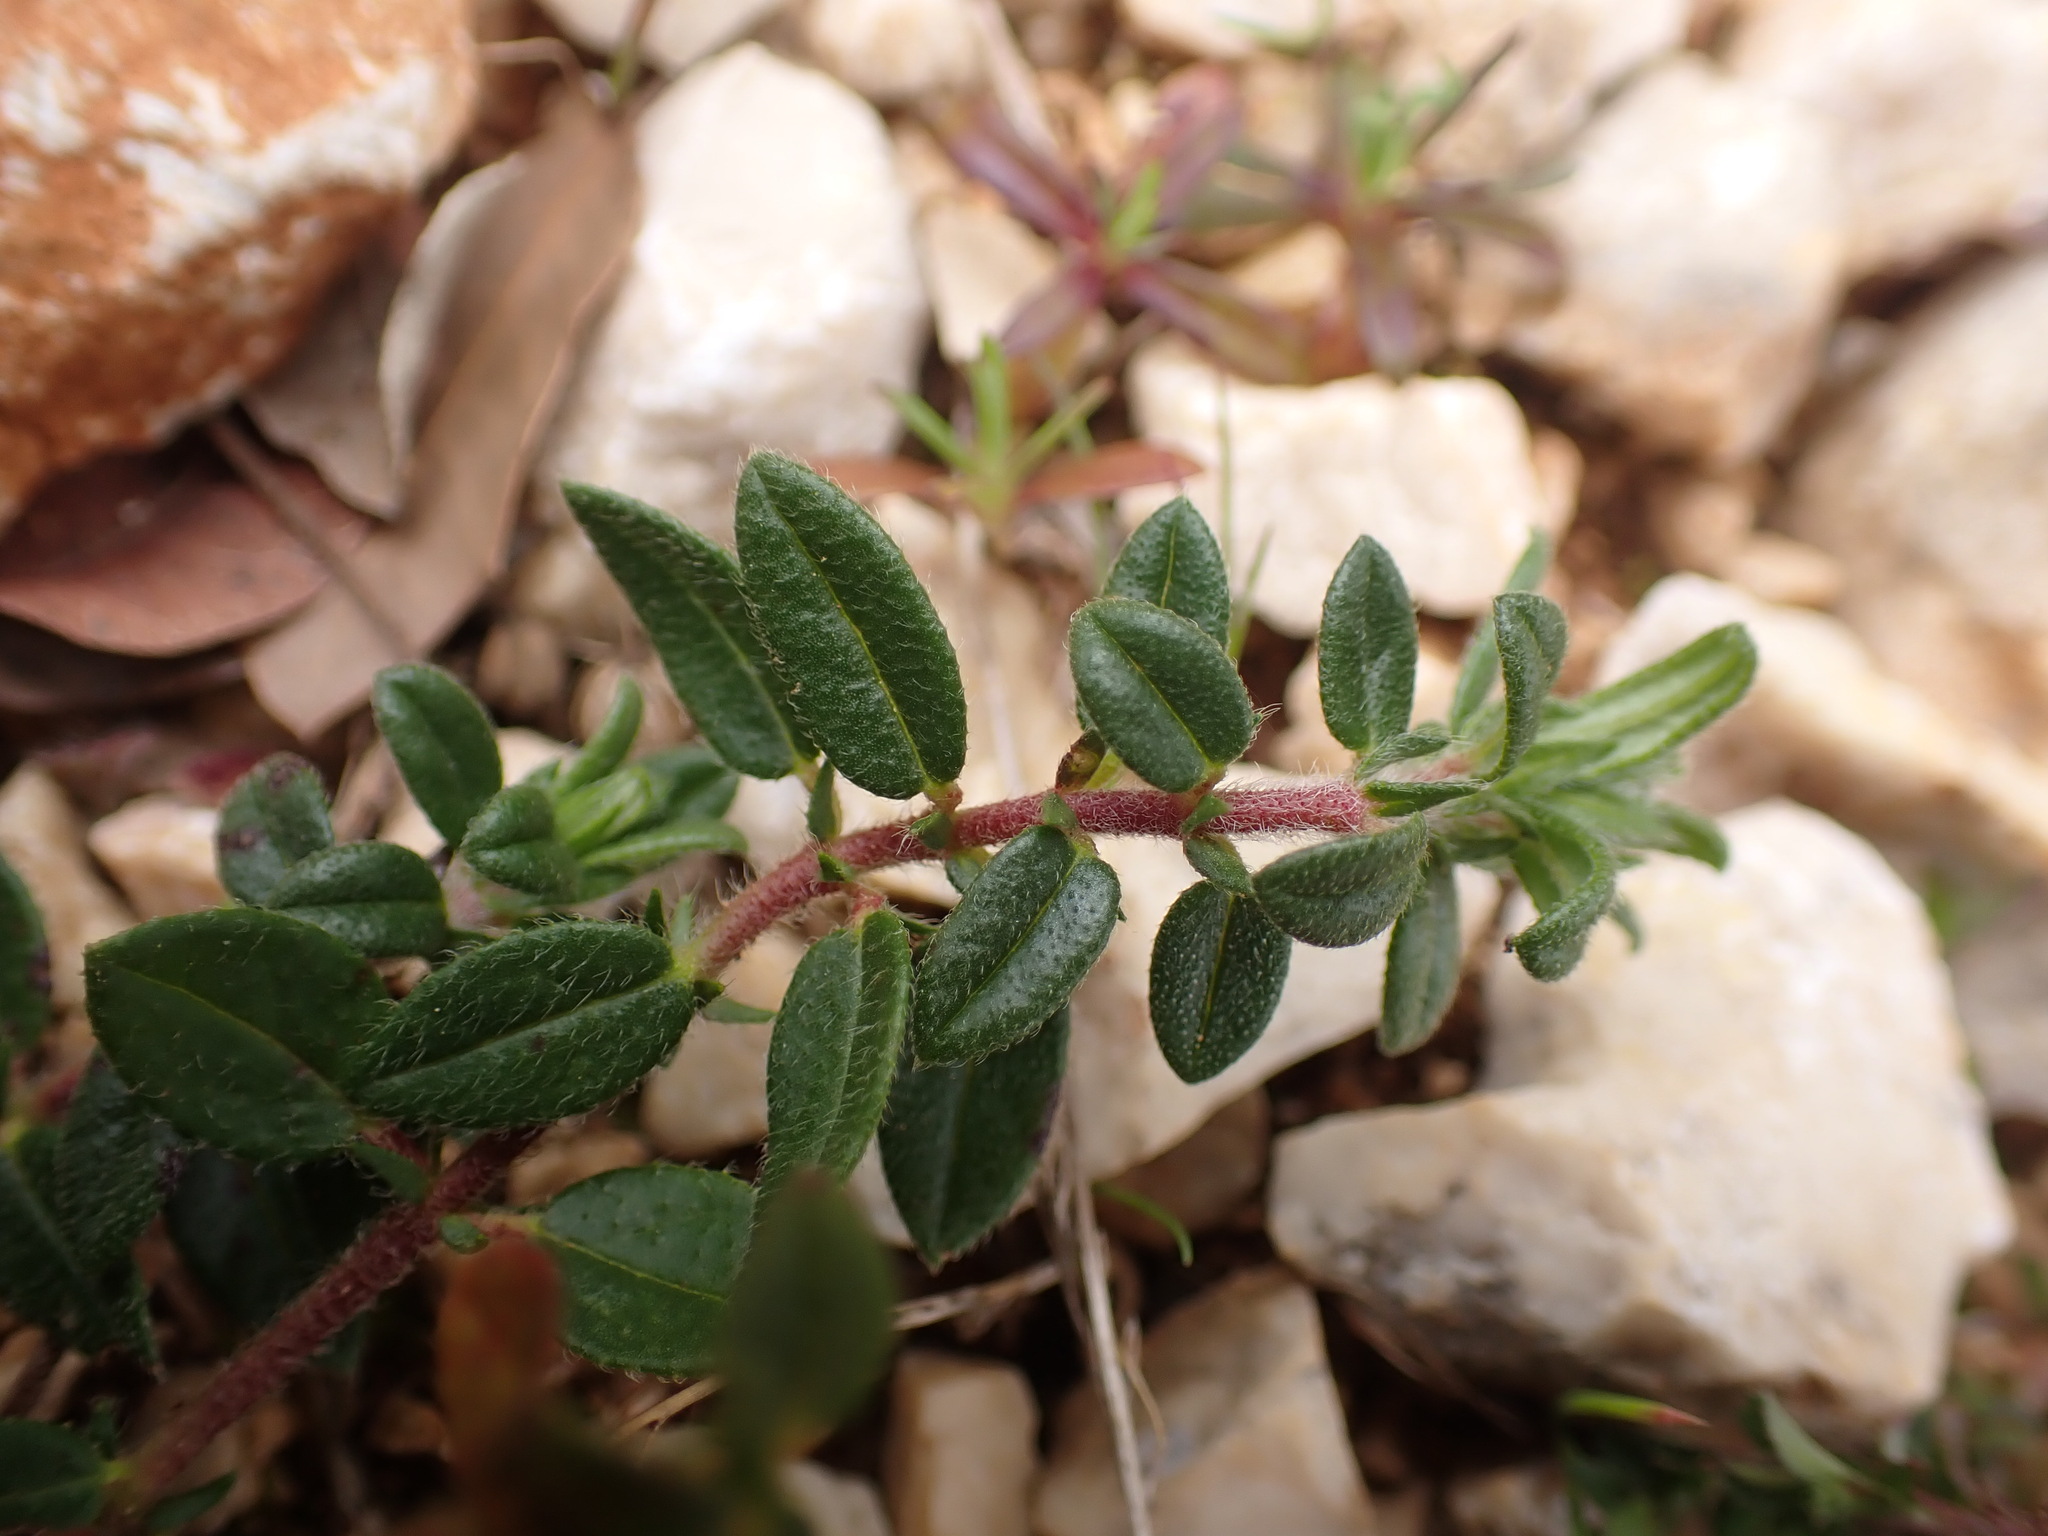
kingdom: Plantae
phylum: Tracheophyta
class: Magnoliopsida
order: Malvales
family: Cistaceae
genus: Helianthemum
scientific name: Helianthemum nummularium
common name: Common rock-rose
